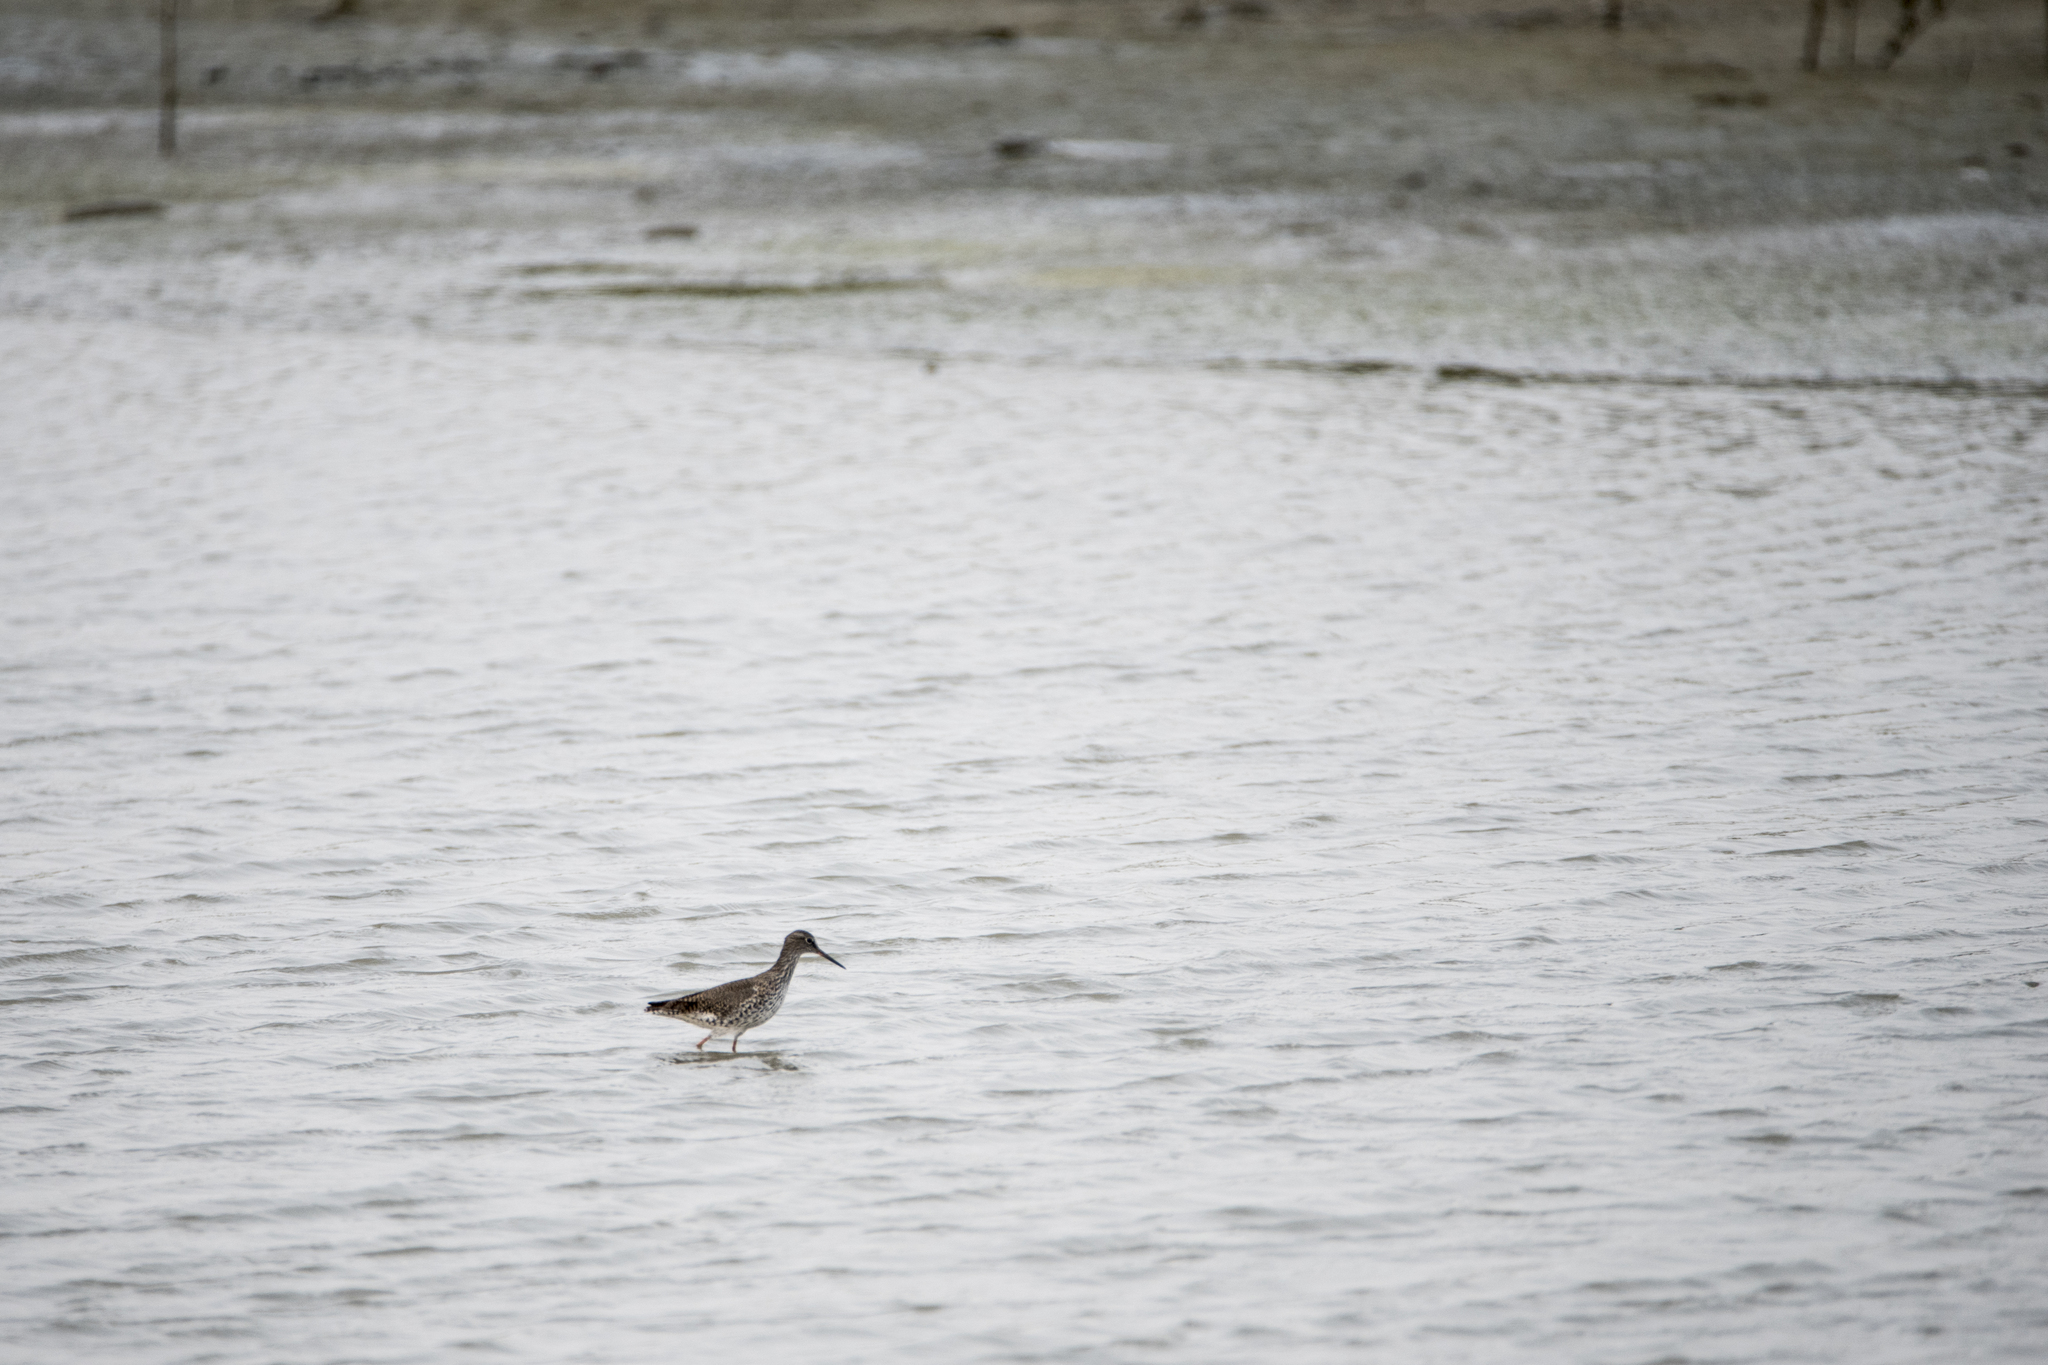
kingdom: Animalia
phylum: Chordata
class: Aves
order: Charadriiformes
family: Scolopacidae
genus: Tringa
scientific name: Tringa totanus
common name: Common redshank
